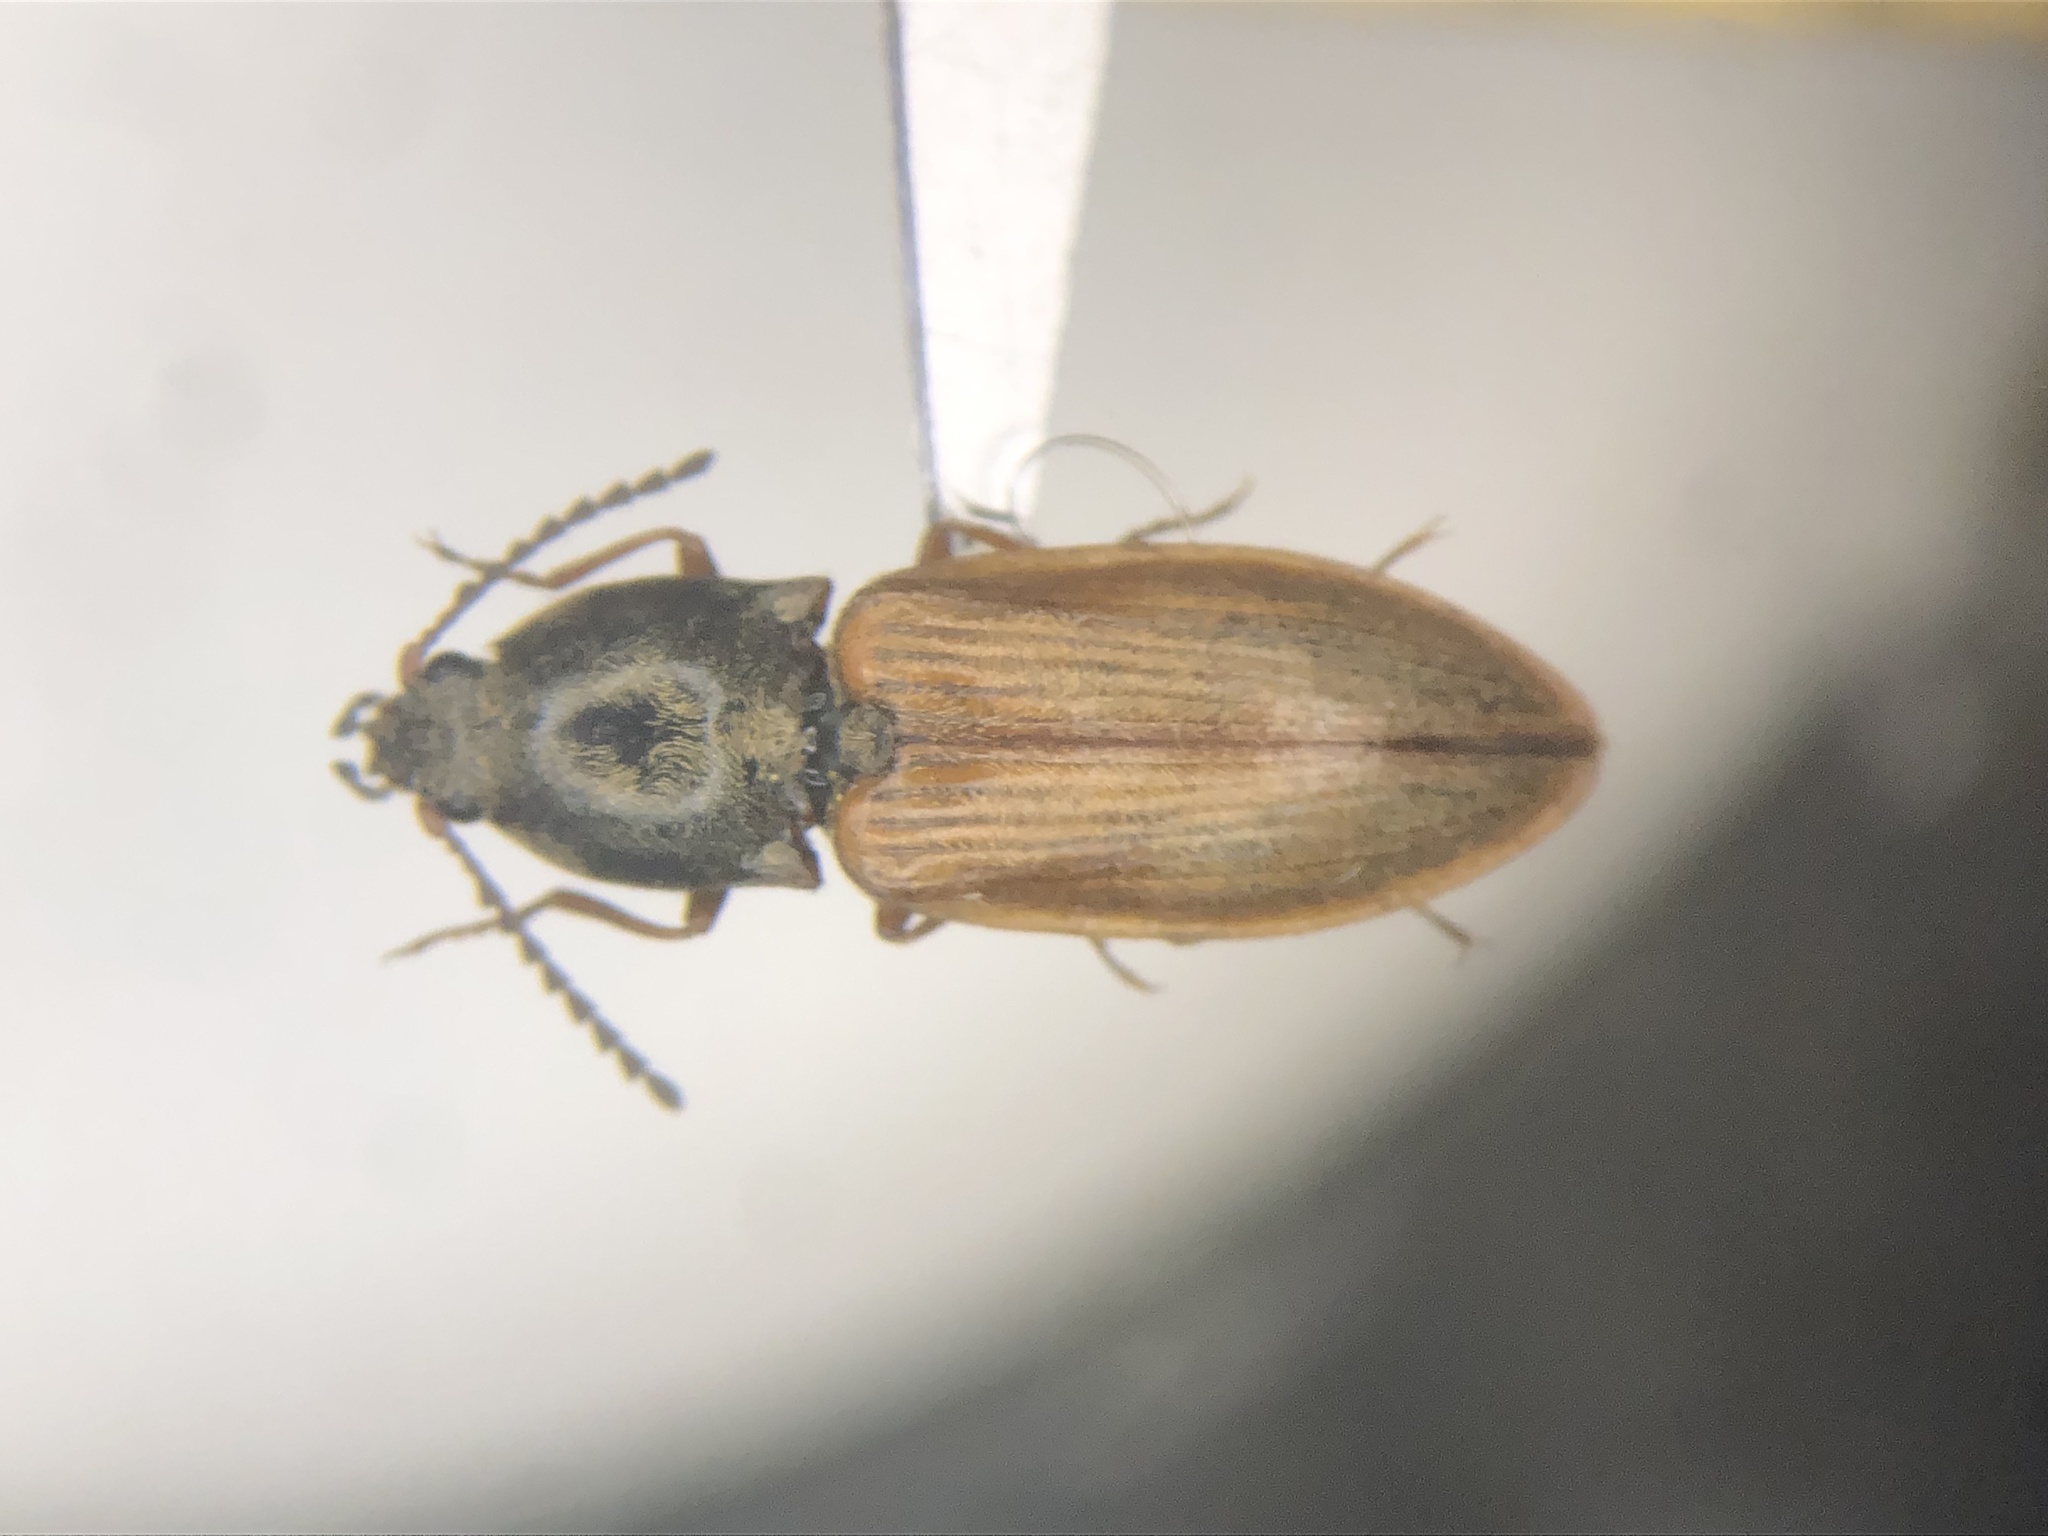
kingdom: Animalia
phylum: Arthropoda
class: Insecta
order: Coleoptera
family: Elateridae
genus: Prosternon
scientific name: Prosternon medianum
